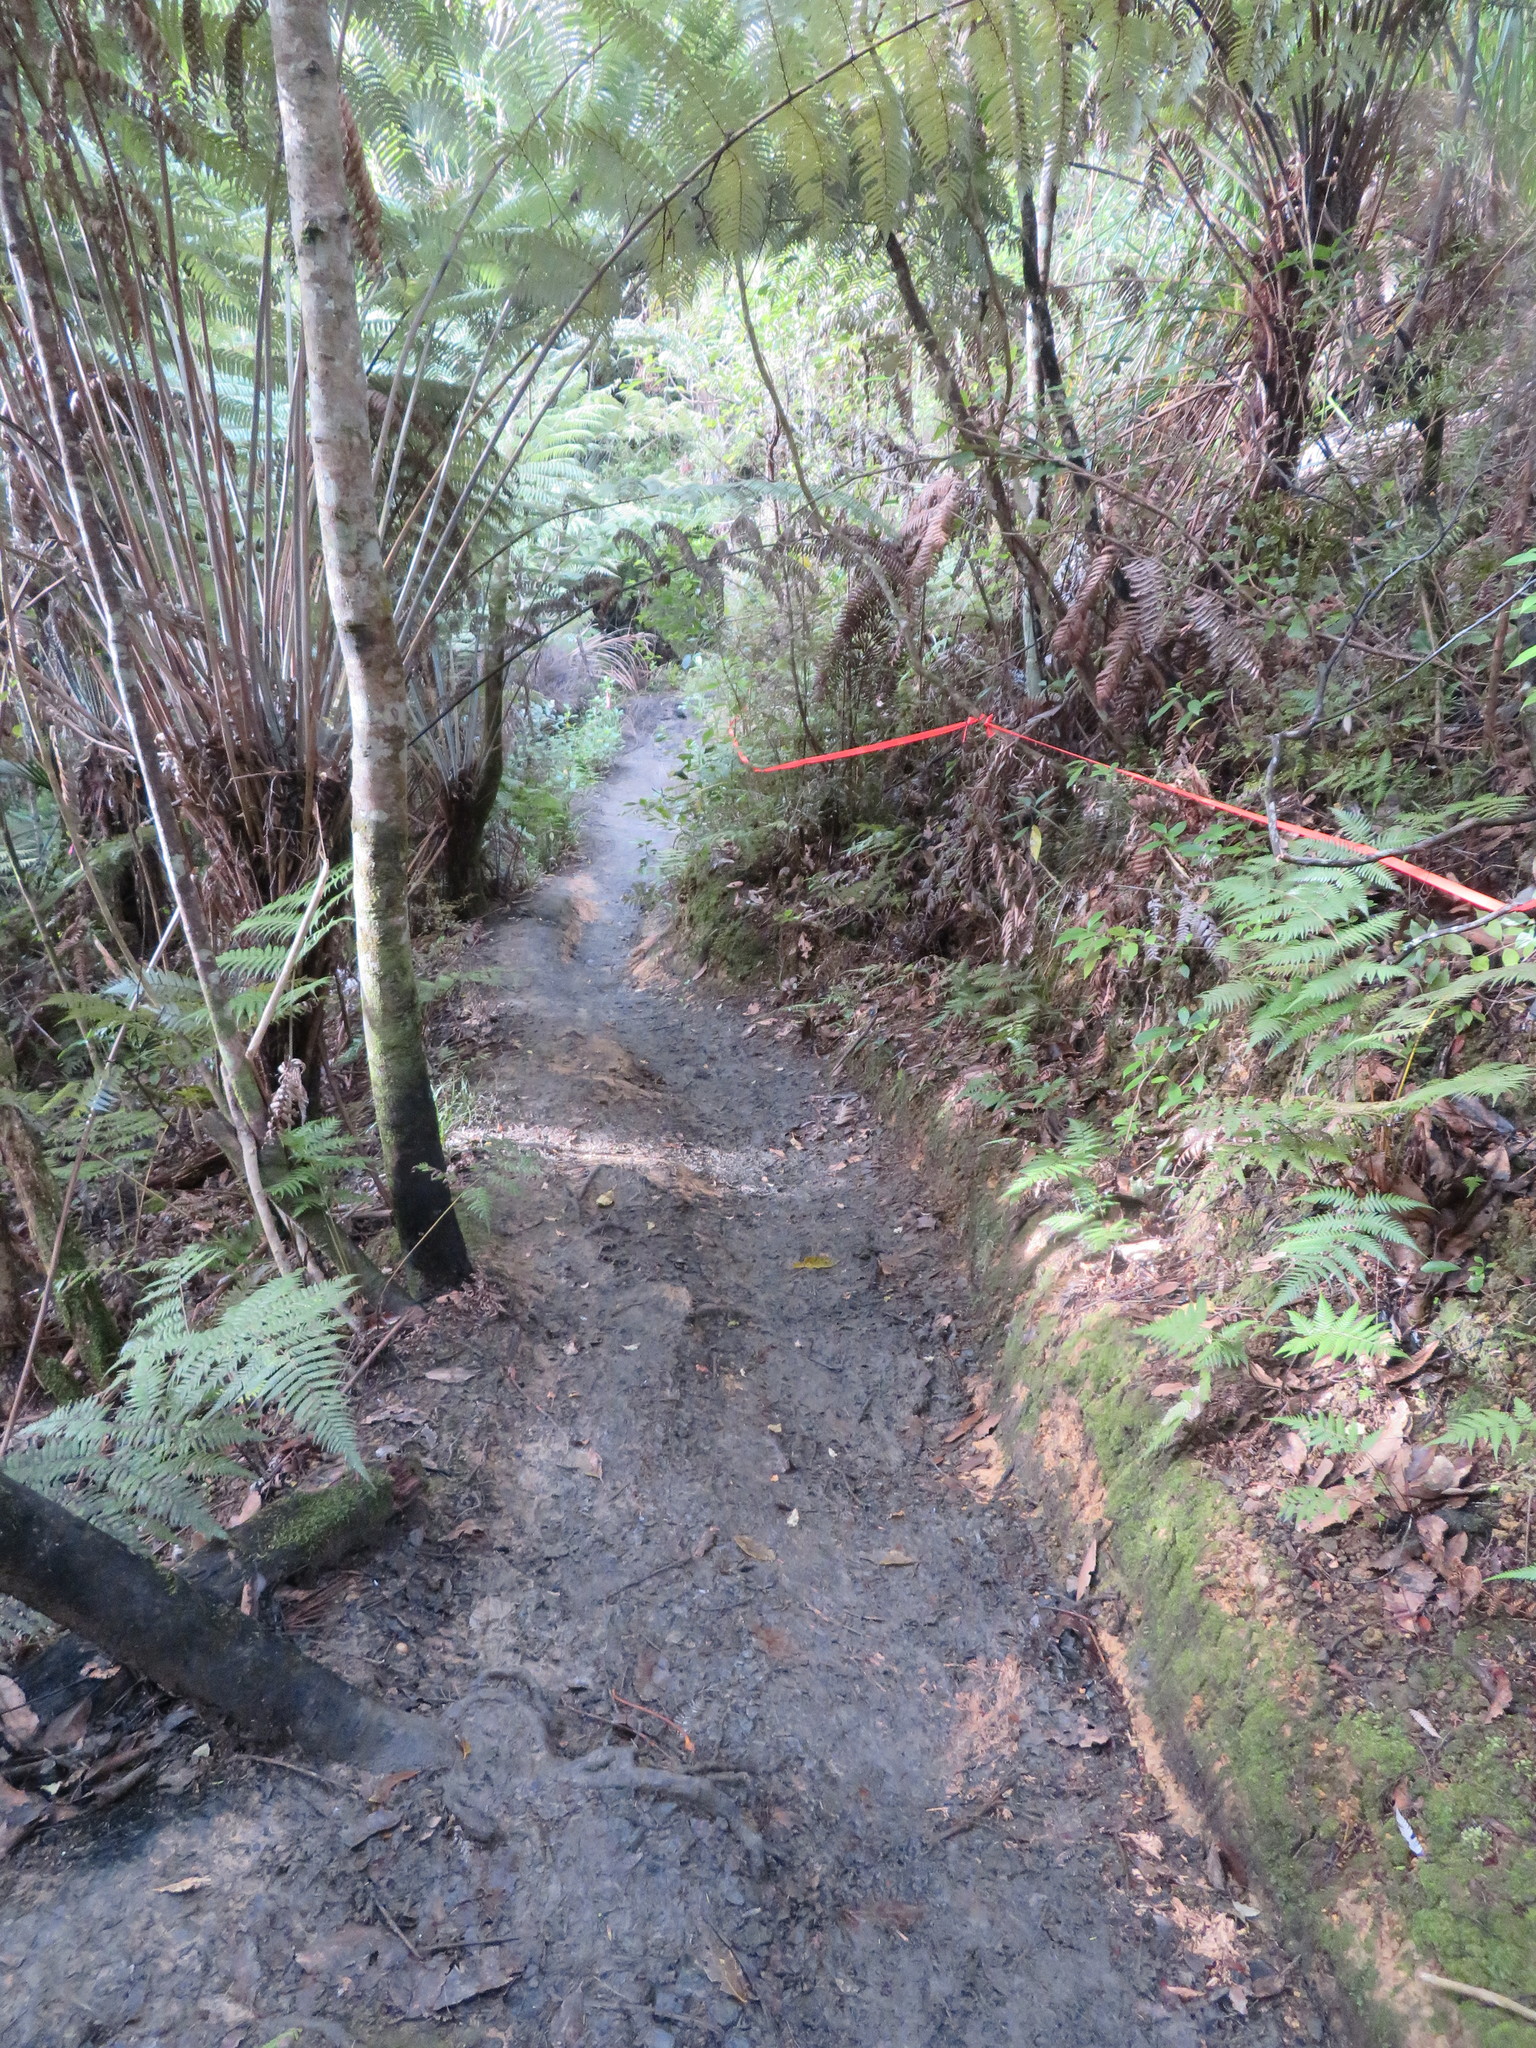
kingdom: Plantae
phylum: Tracheophyta
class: Polypodiopsida
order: Cyatheales
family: Cyatheaceae
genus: Alsophila
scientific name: Alsophila dealbata
